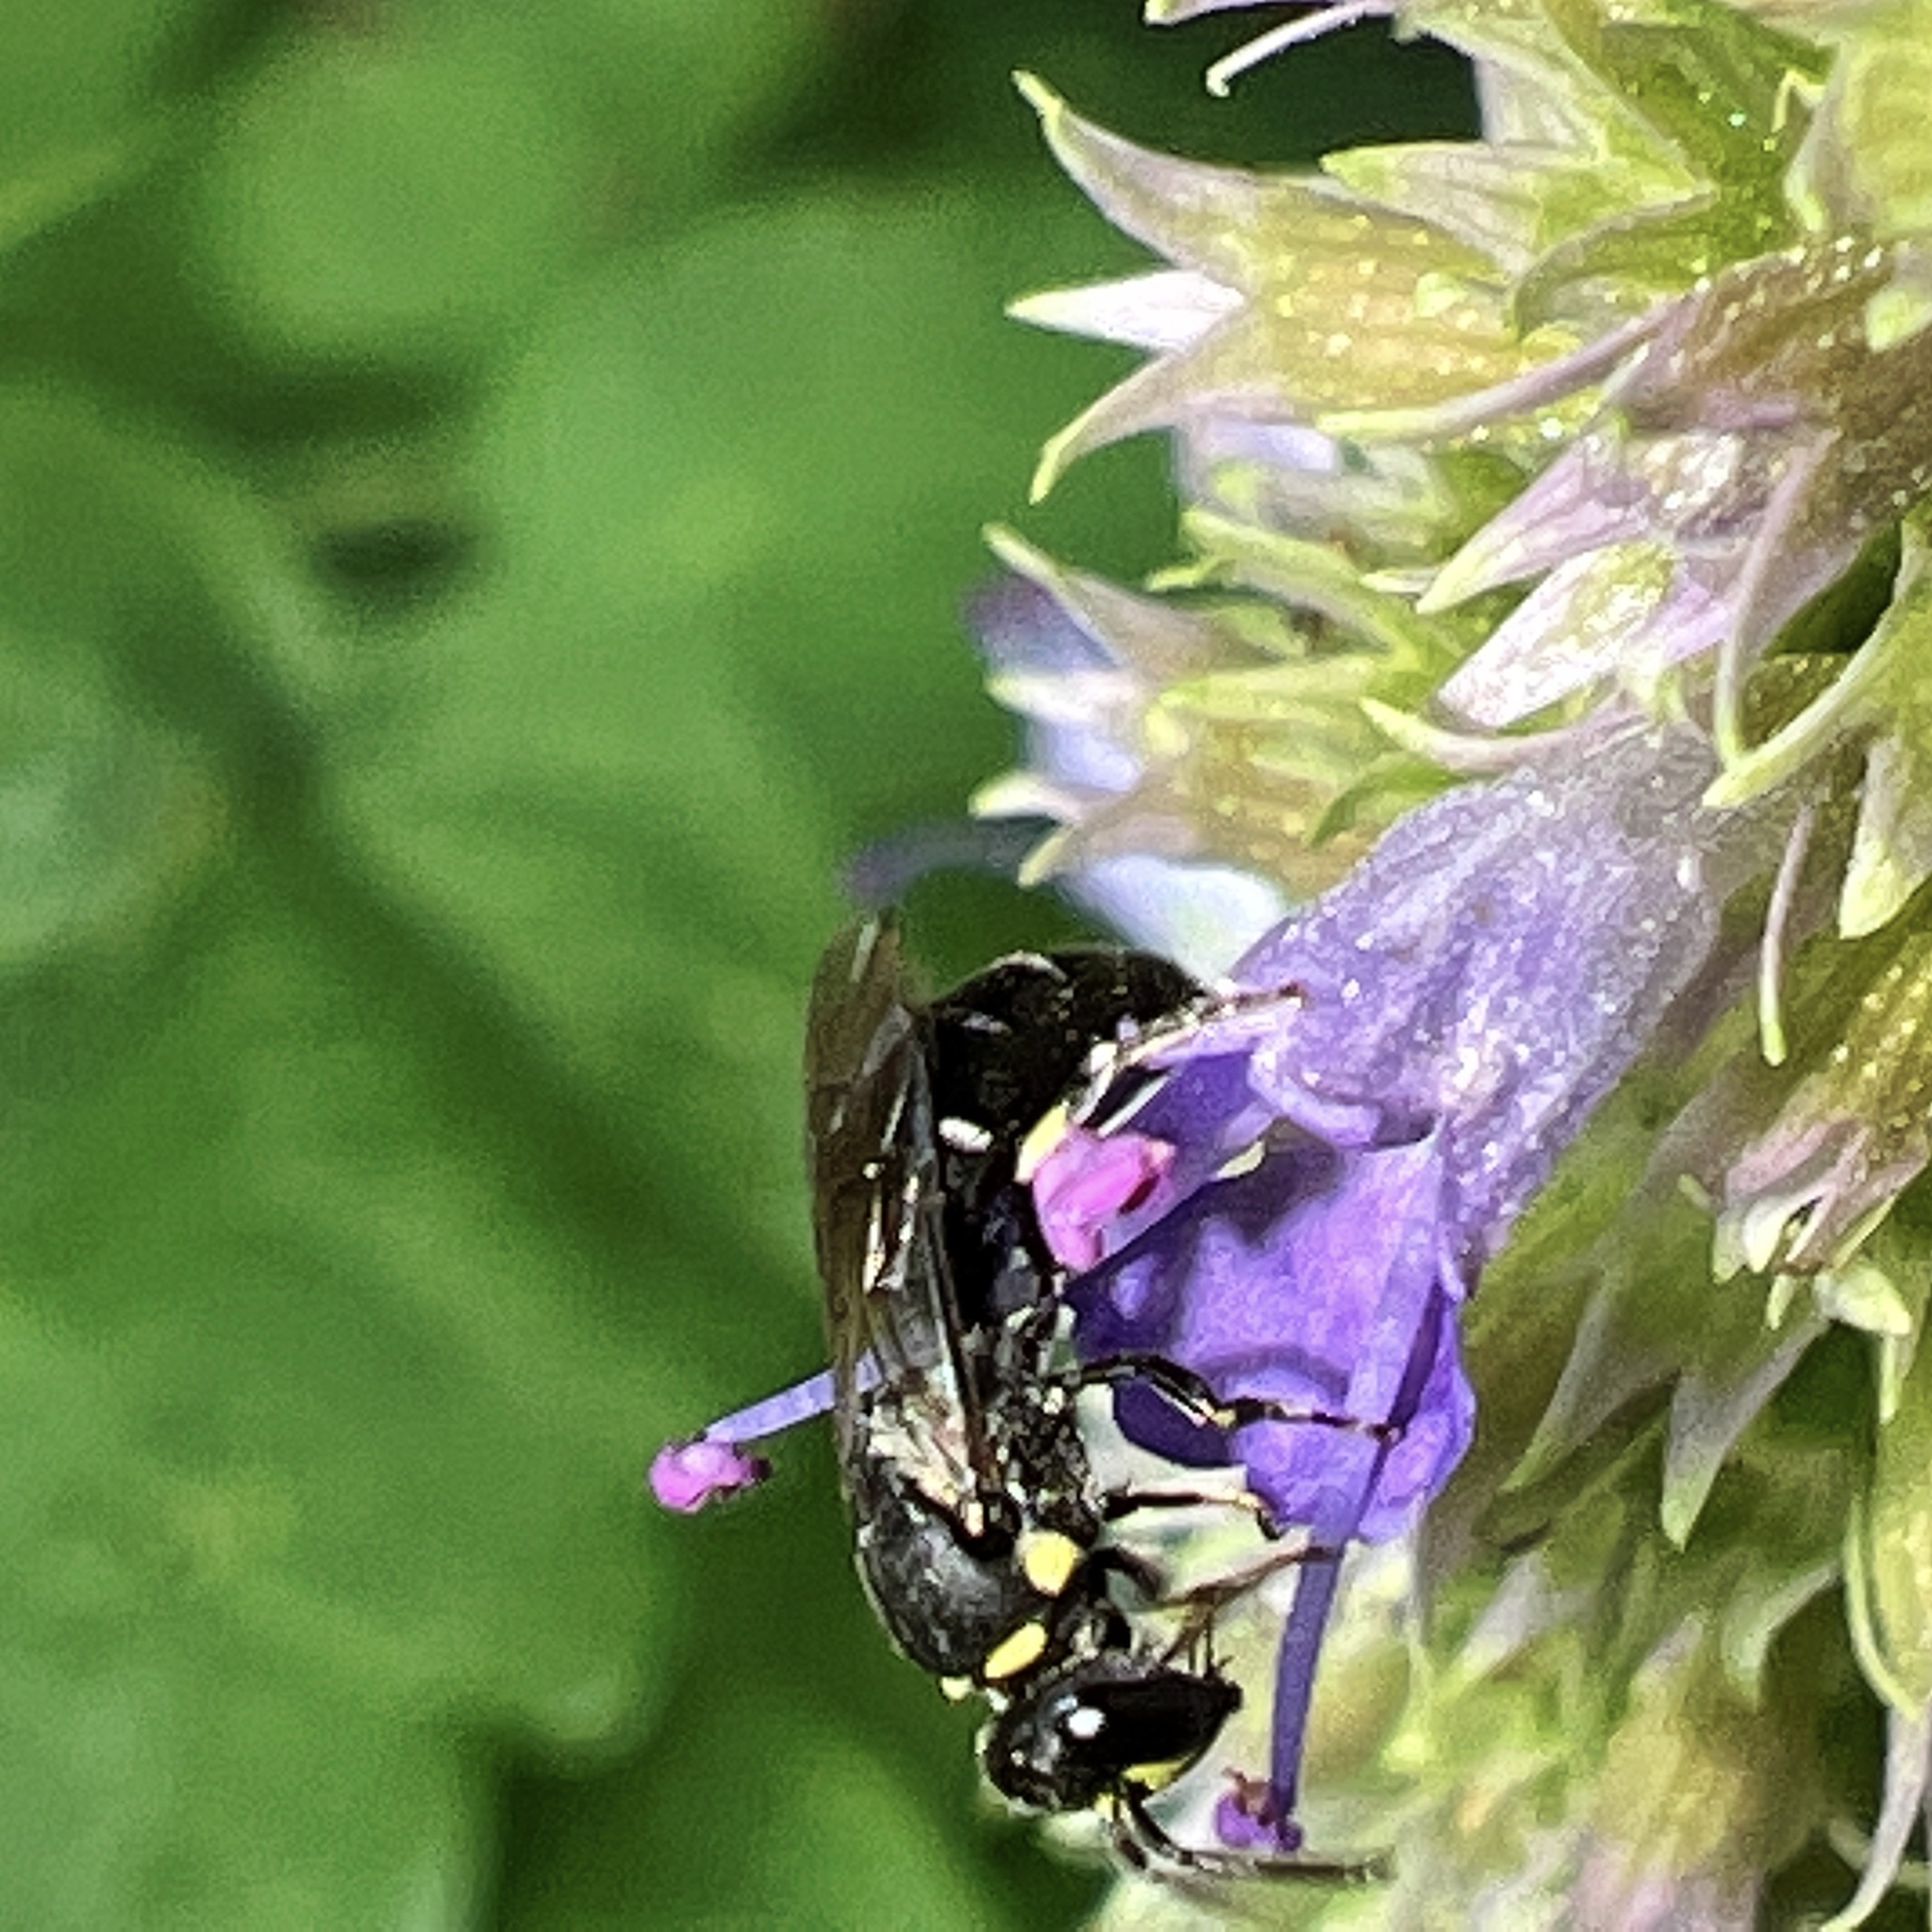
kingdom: Animalia
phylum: Arthropoda
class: Insecta
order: Hymenoptera
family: Colletidae
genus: Hylaeus
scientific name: Hylaeus modestus
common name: Yellow-faced bee
